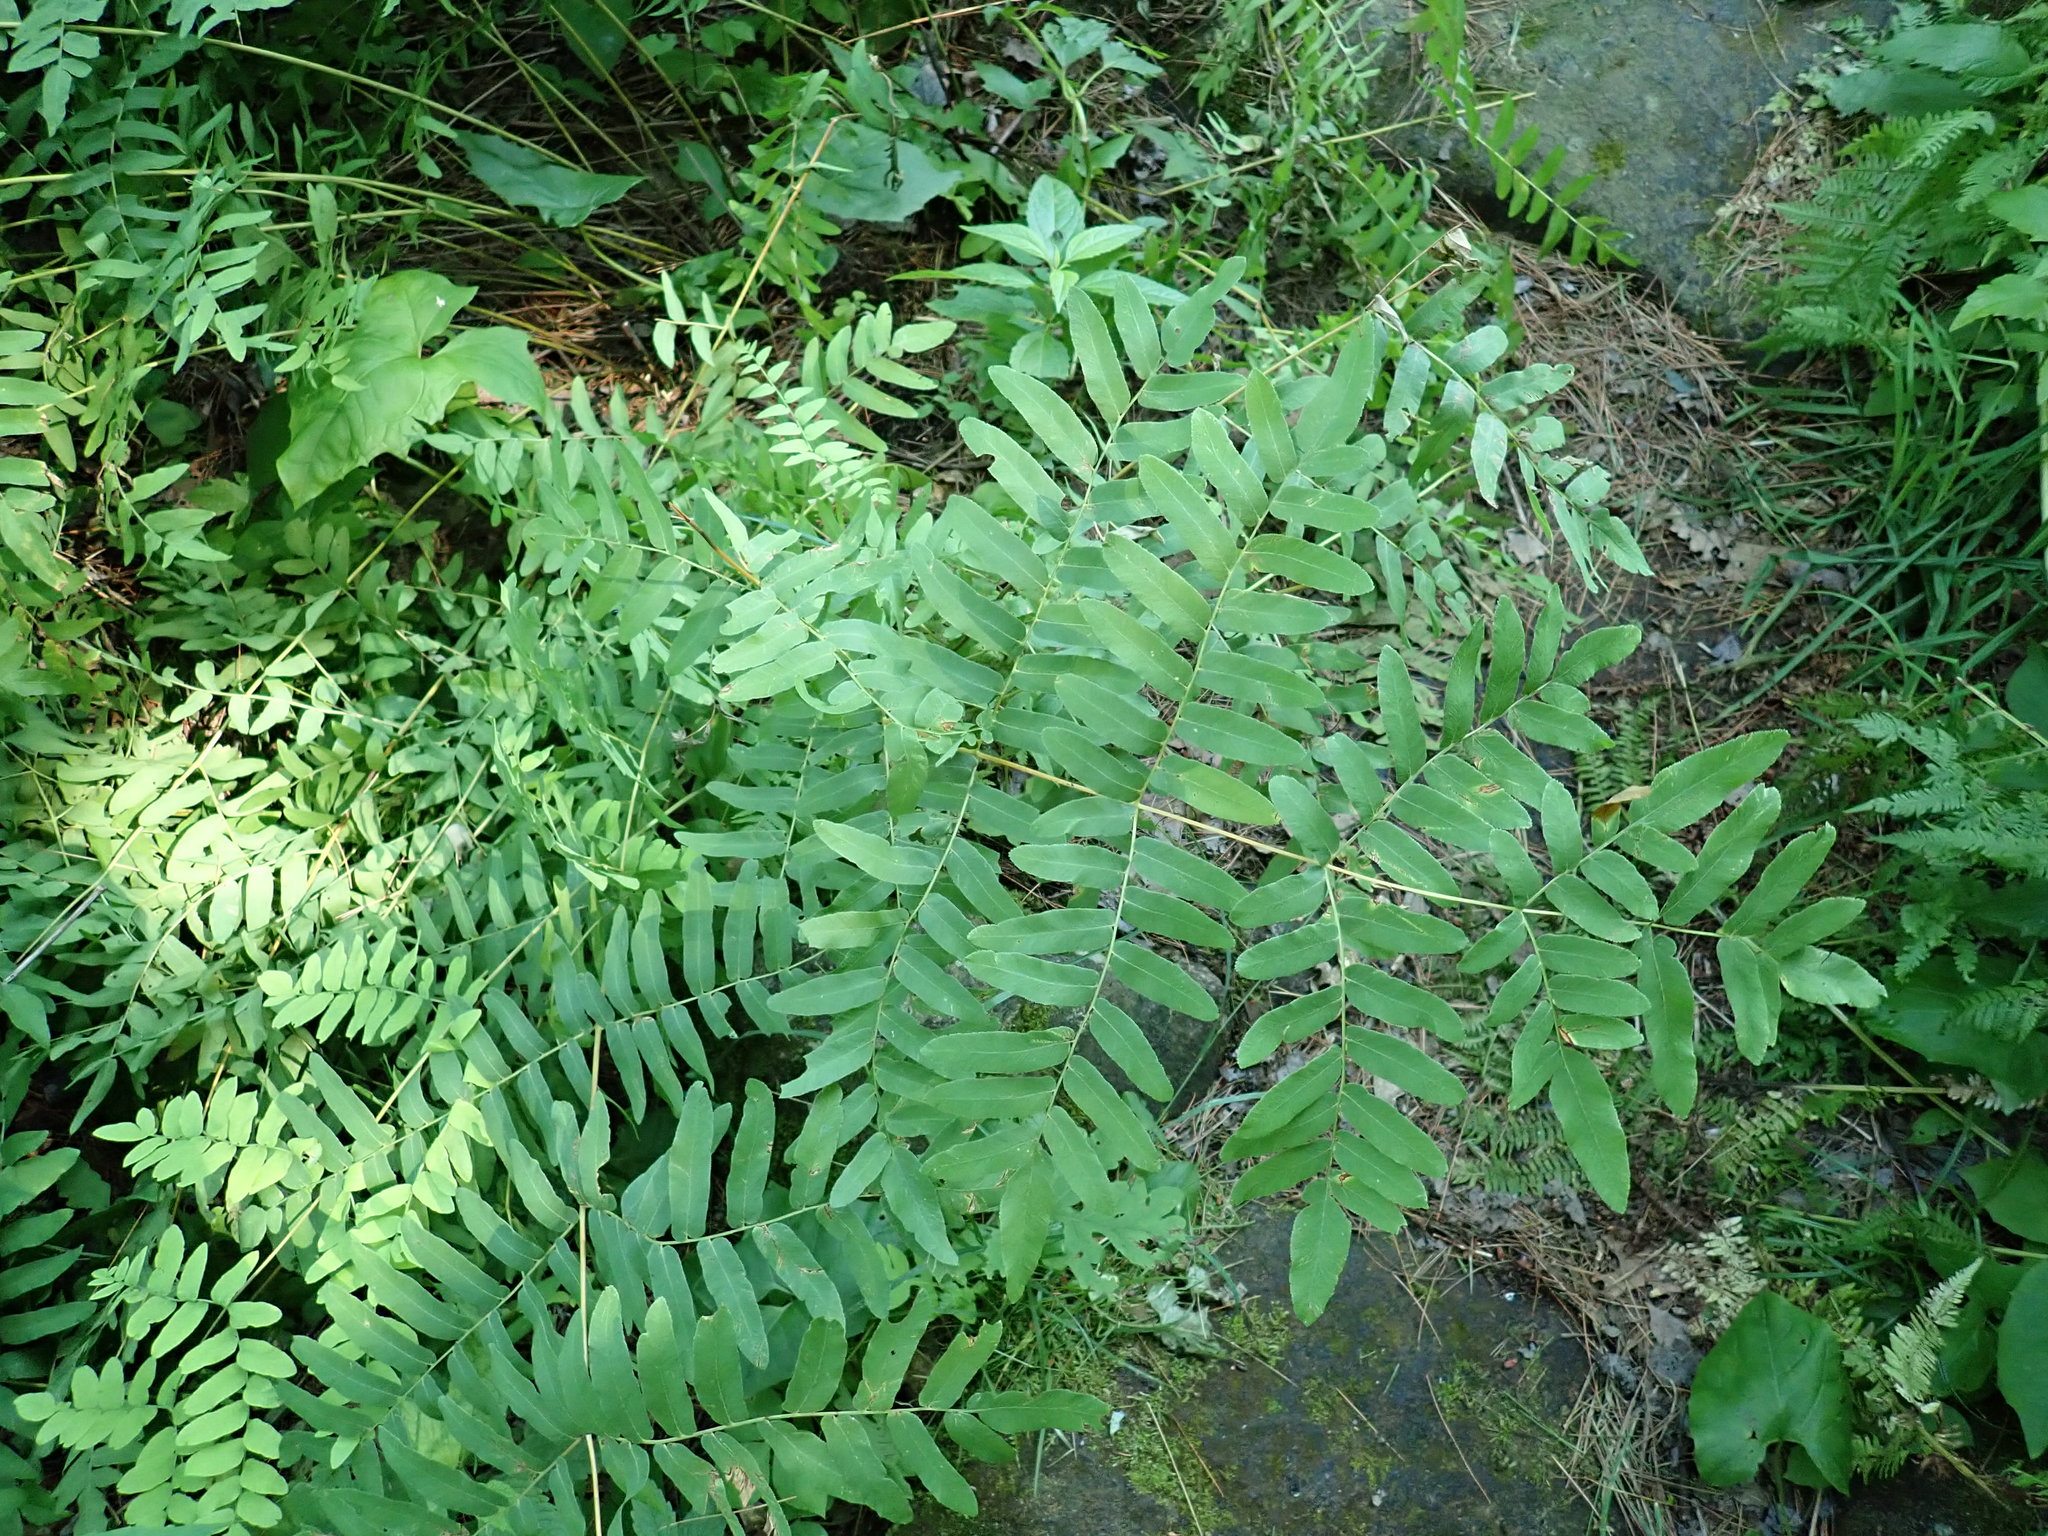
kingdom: Plantae
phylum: Tracheophyta
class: Polypodiopsida
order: Osmundales
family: Osmundaceae
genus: Osmunda
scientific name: Osmunda spectabilis
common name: American royal fern
